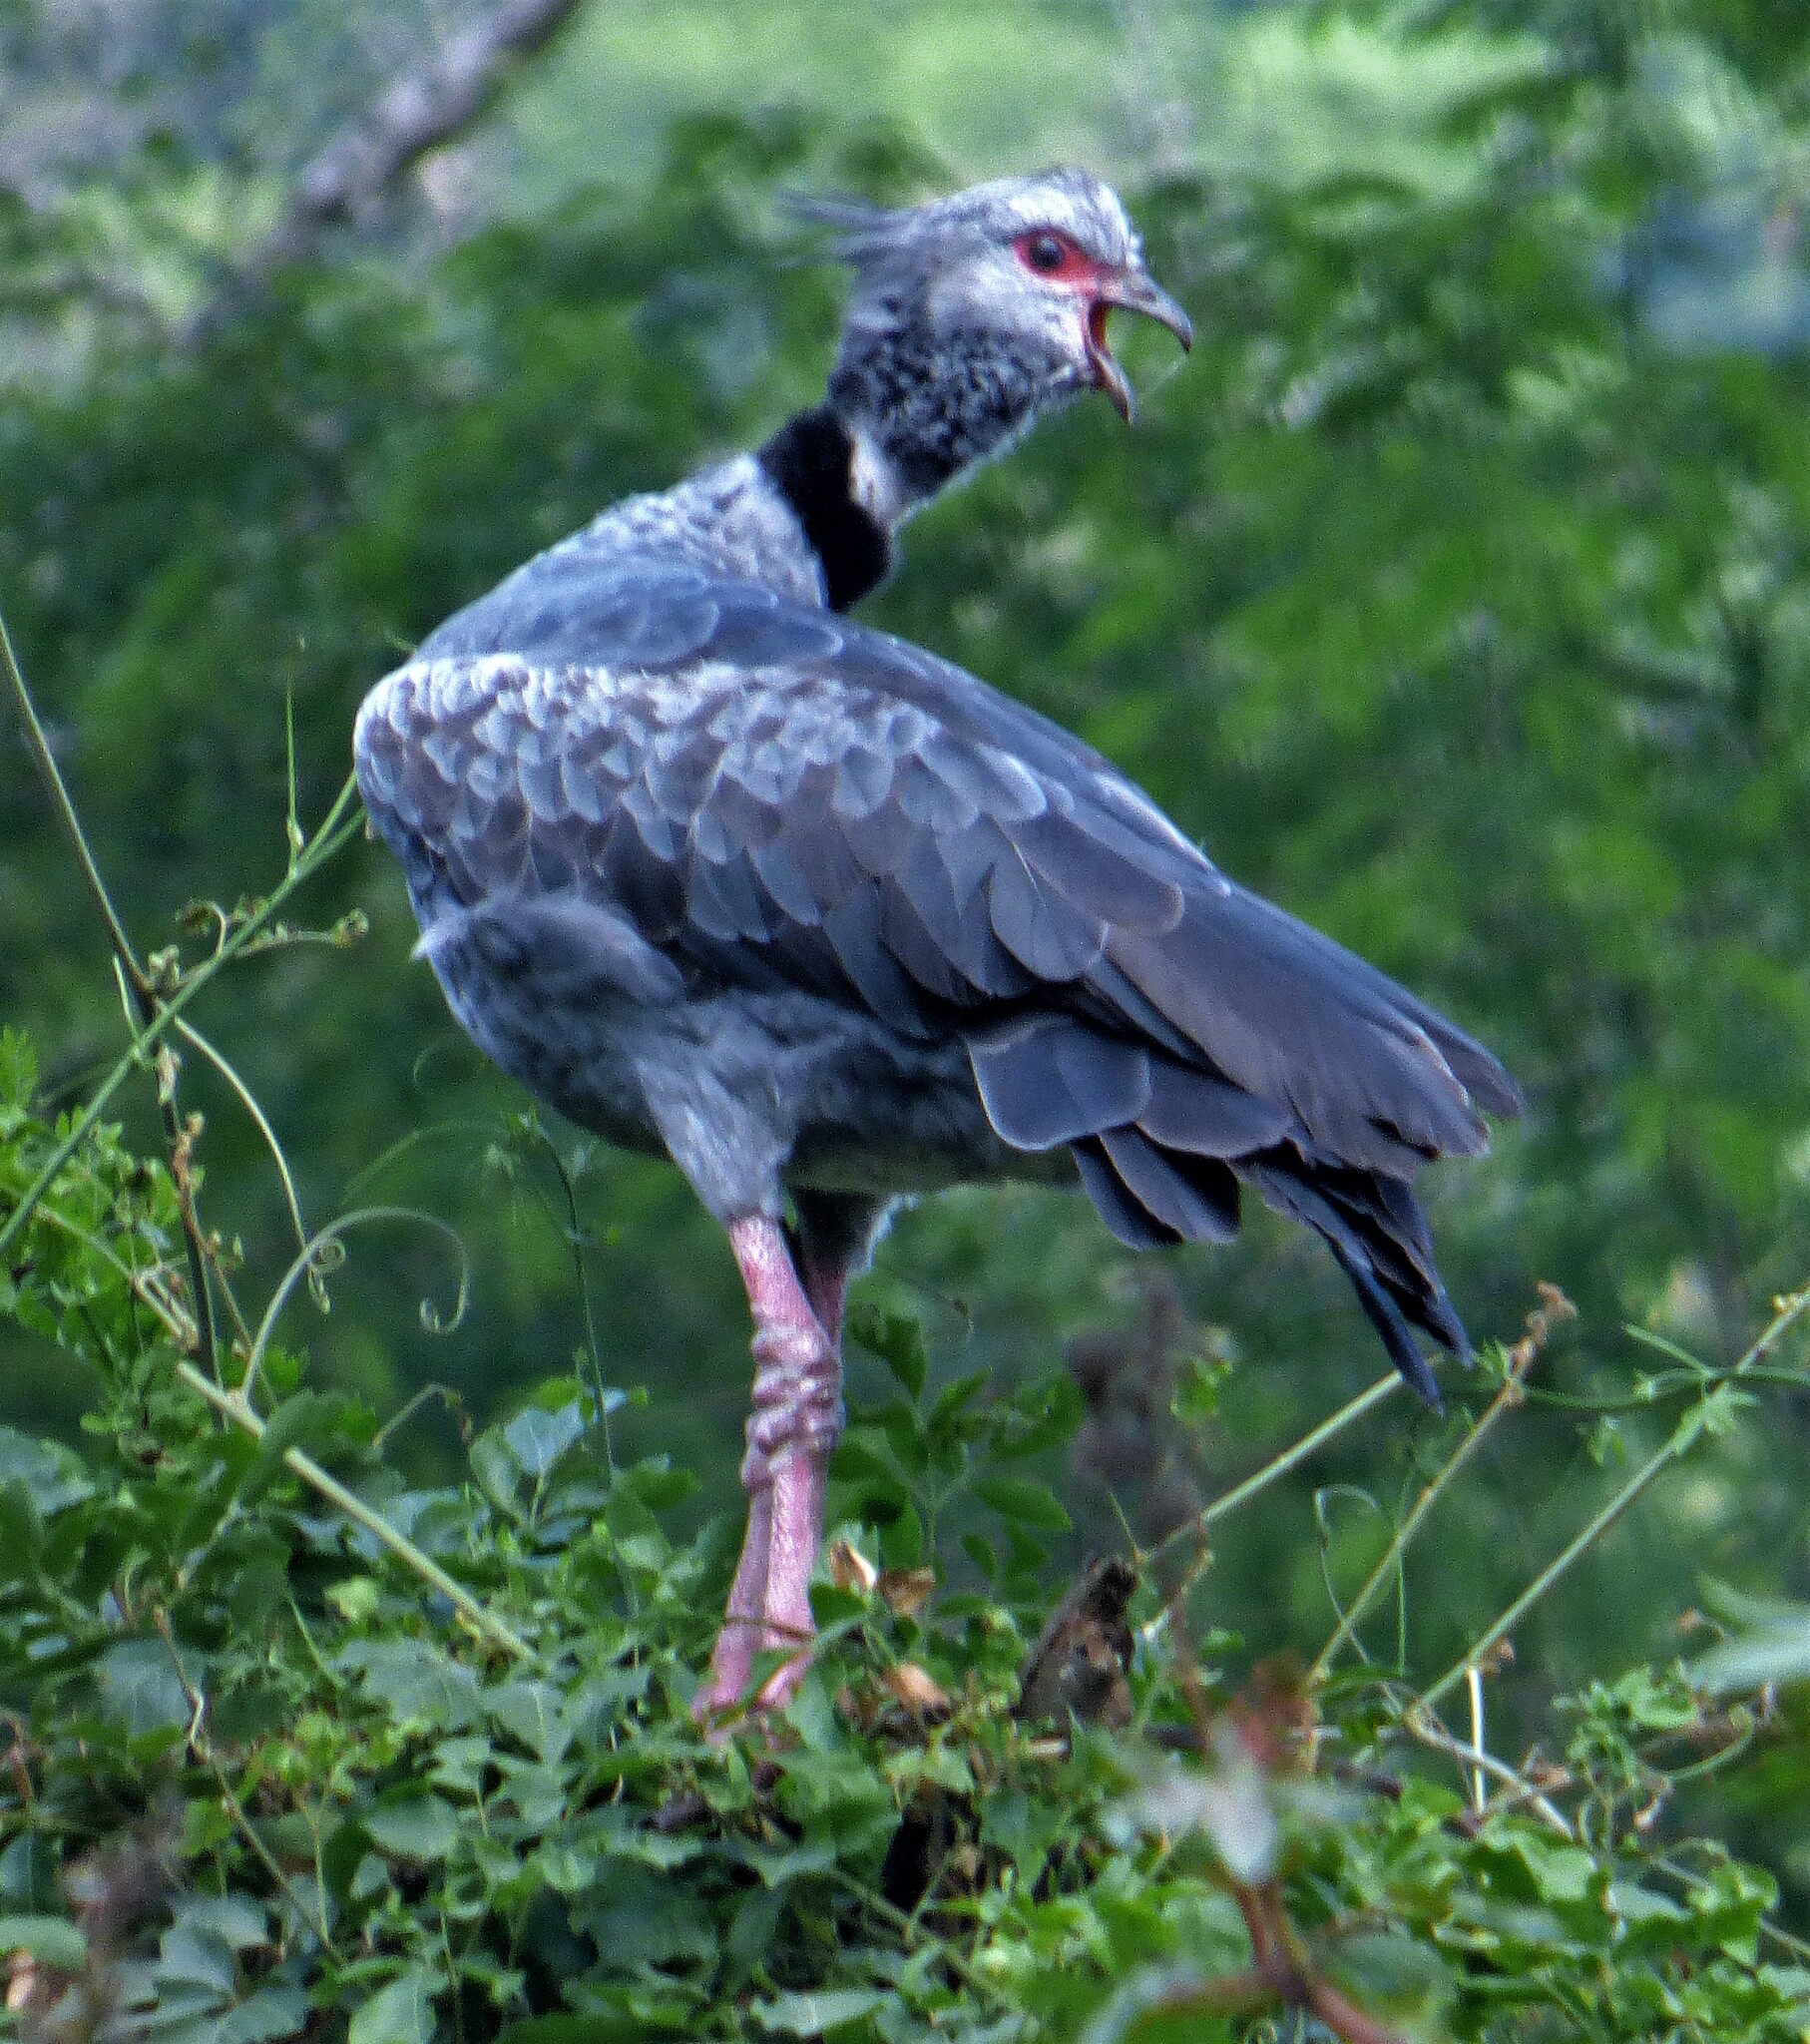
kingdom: Animalia
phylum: Chordata
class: Aves
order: Anseriformes
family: Anhimidae
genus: Chauna
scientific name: Chauna torquata
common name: Southern screamer
